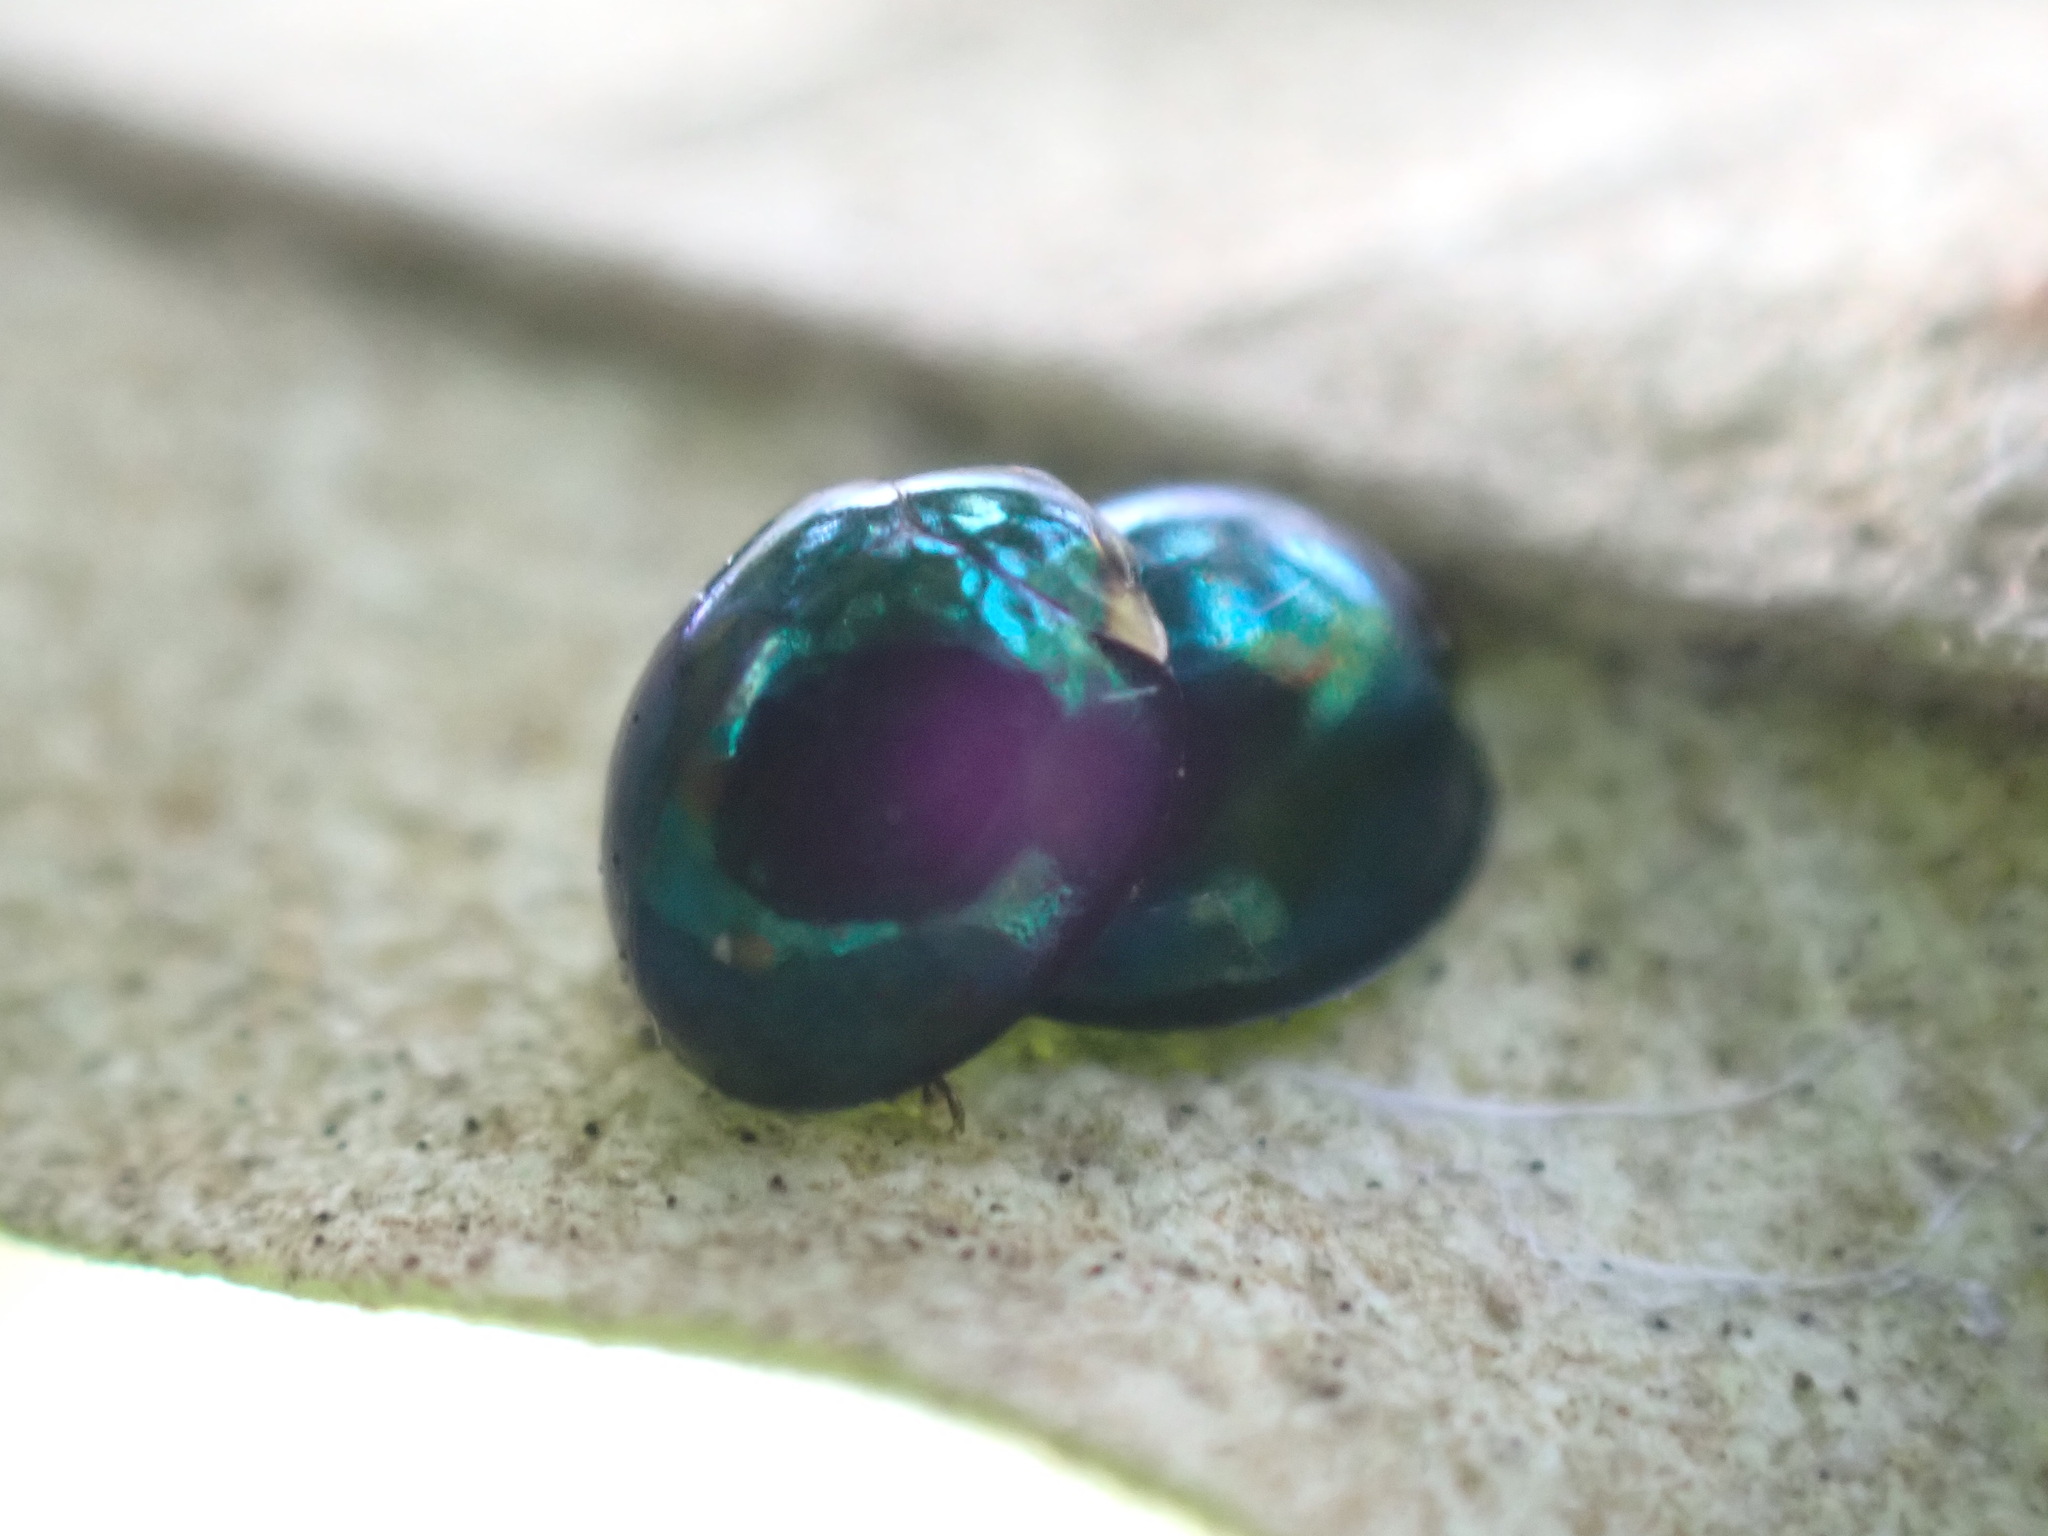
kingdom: Animalia
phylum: Arthropoda
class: Insecta
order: Coleoptera
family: Coccinellidae
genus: Halmus
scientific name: Halmus chalybeus
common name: Steel blue ladybird beetle
